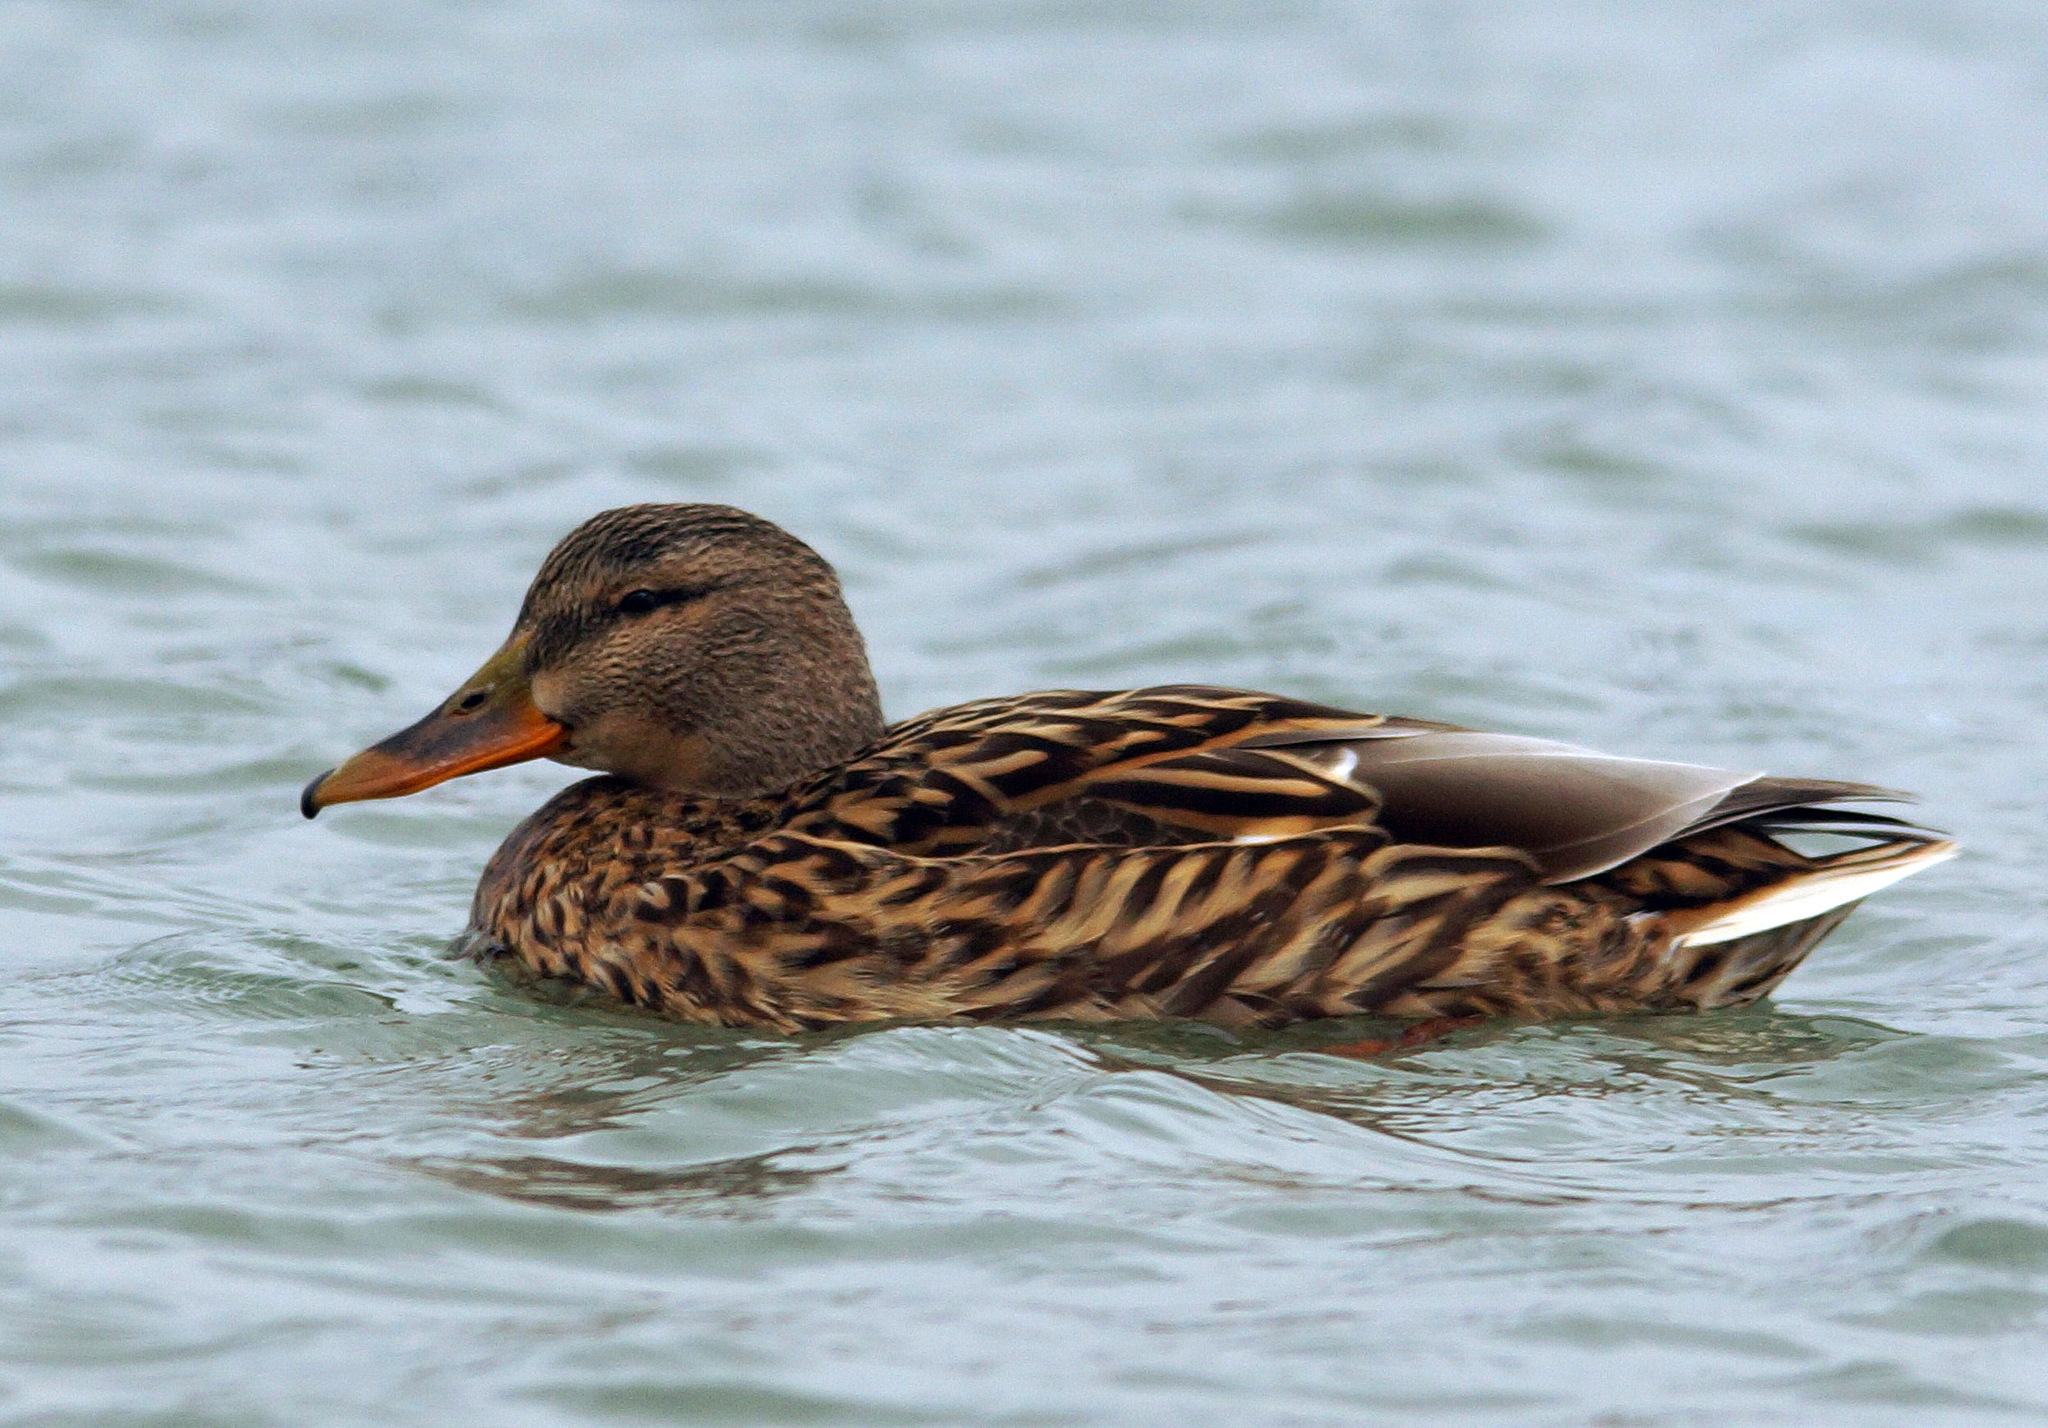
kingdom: Animalia
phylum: Chordata
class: Aves
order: Anseriformes
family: Anatidae
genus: Anas
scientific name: Anas platyrhynchos
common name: Mallard
